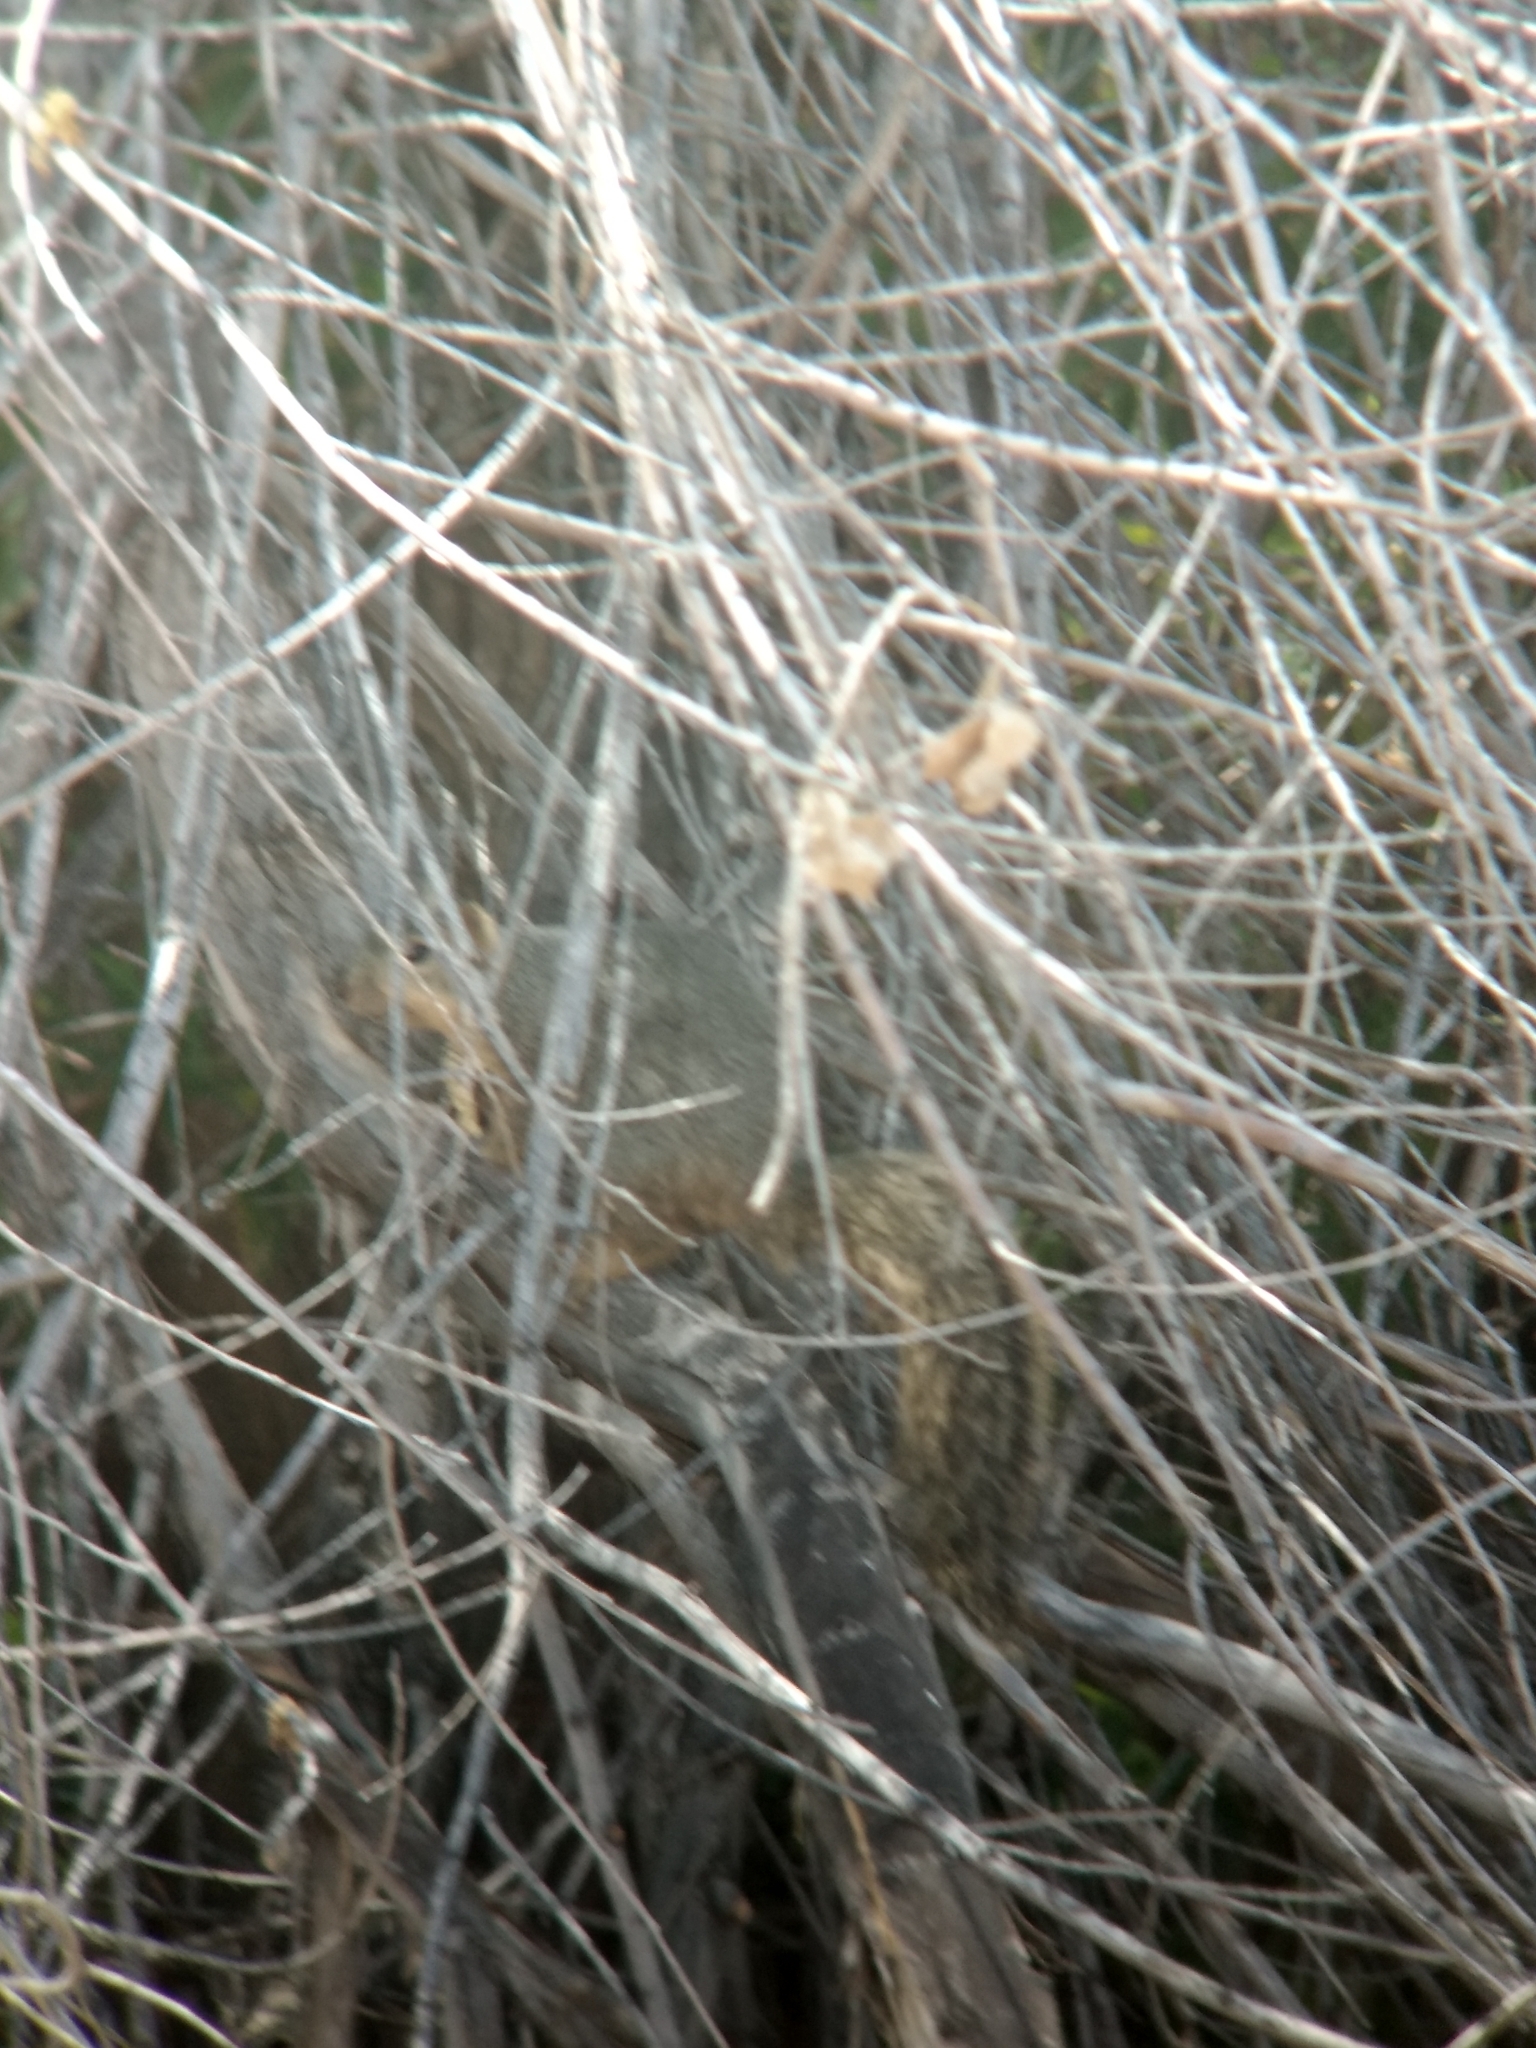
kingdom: Animalia
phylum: Chordata
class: Mammalia
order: Rodentia
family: Sciuridae
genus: Sciurus
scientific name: Sciurus niger
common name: Fox squirrel
